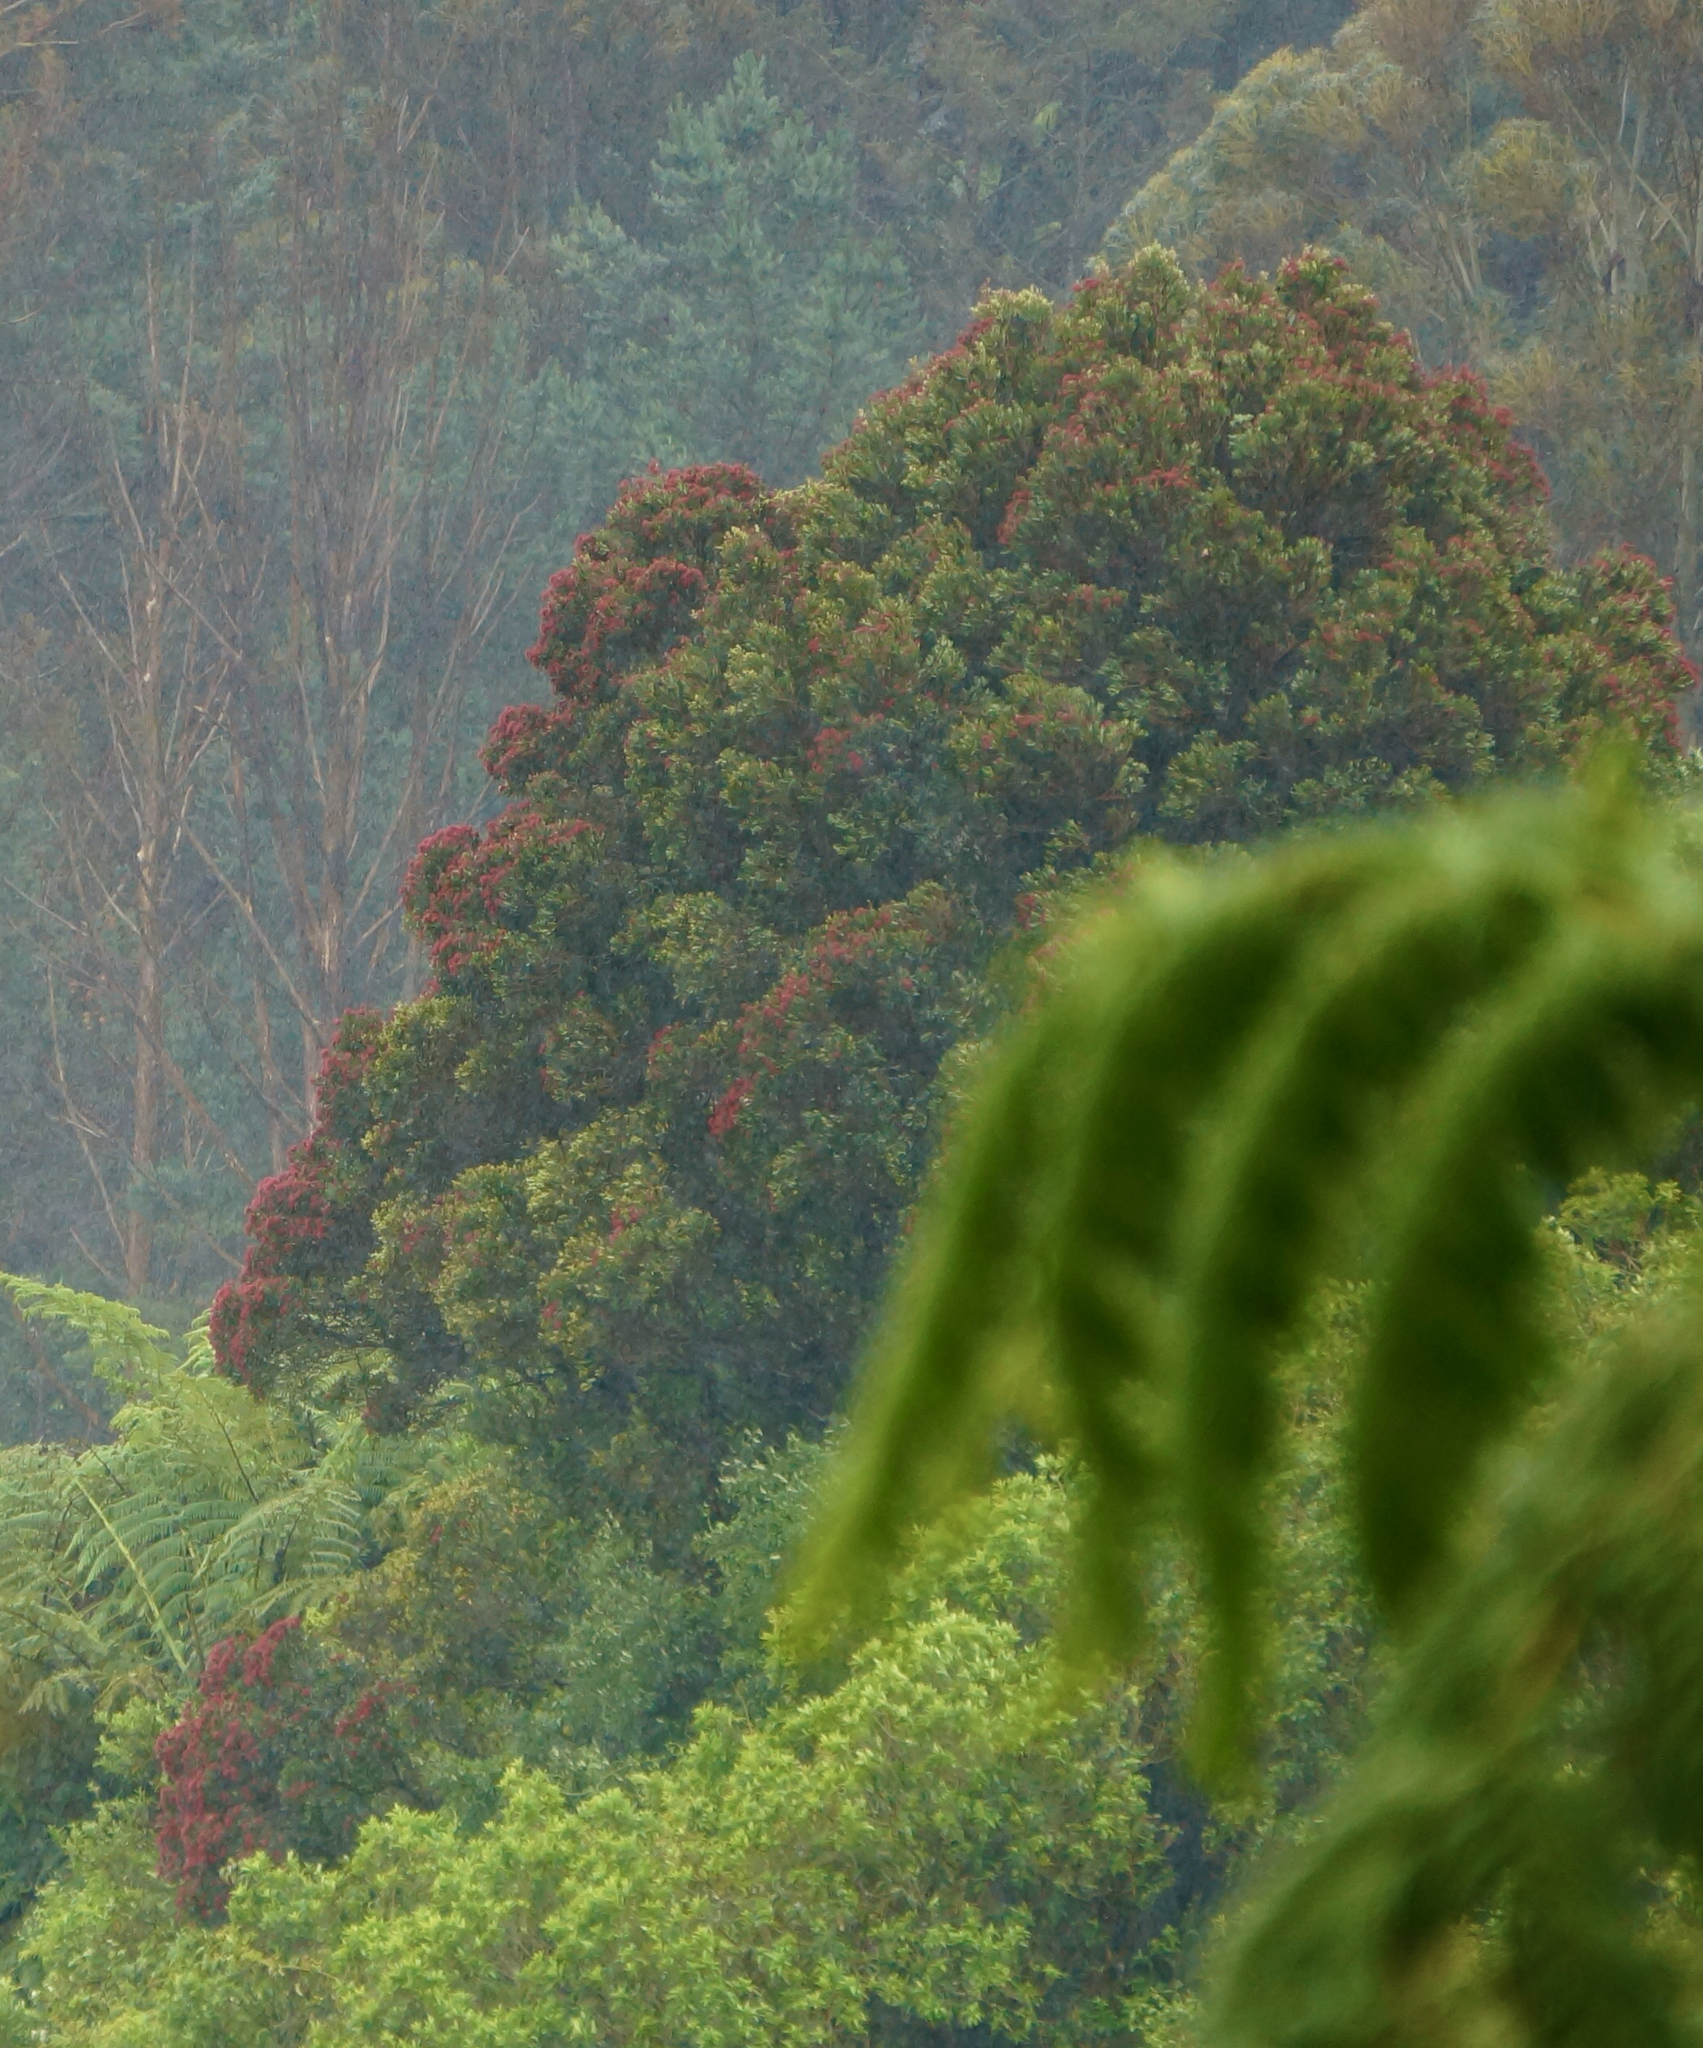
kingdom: Plantae
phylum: Tracheophyta
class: Magnoliopsida
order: Myrtales
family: Myrtaceae
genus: Metrosideros
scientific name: Metrosideros robusta
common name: Northern rata
